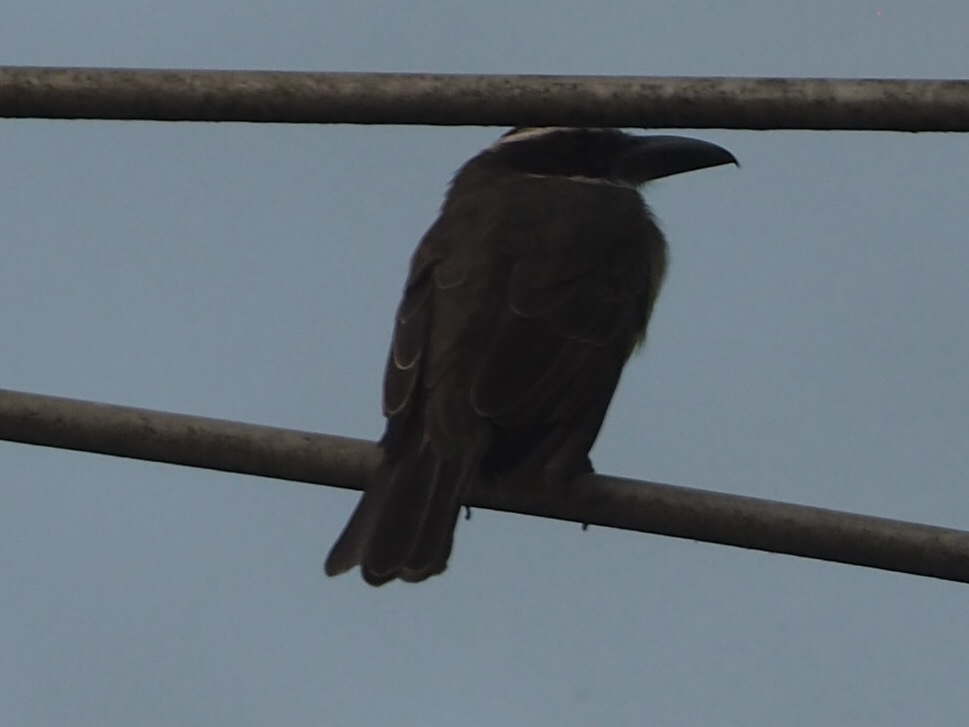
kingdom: Animalia
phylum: Chordata
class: Aves
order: Passeriformes
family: Tyrannidae
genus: Megarynchus
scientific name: Megarynchus pitangua
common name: Boat-billed flycatcher
